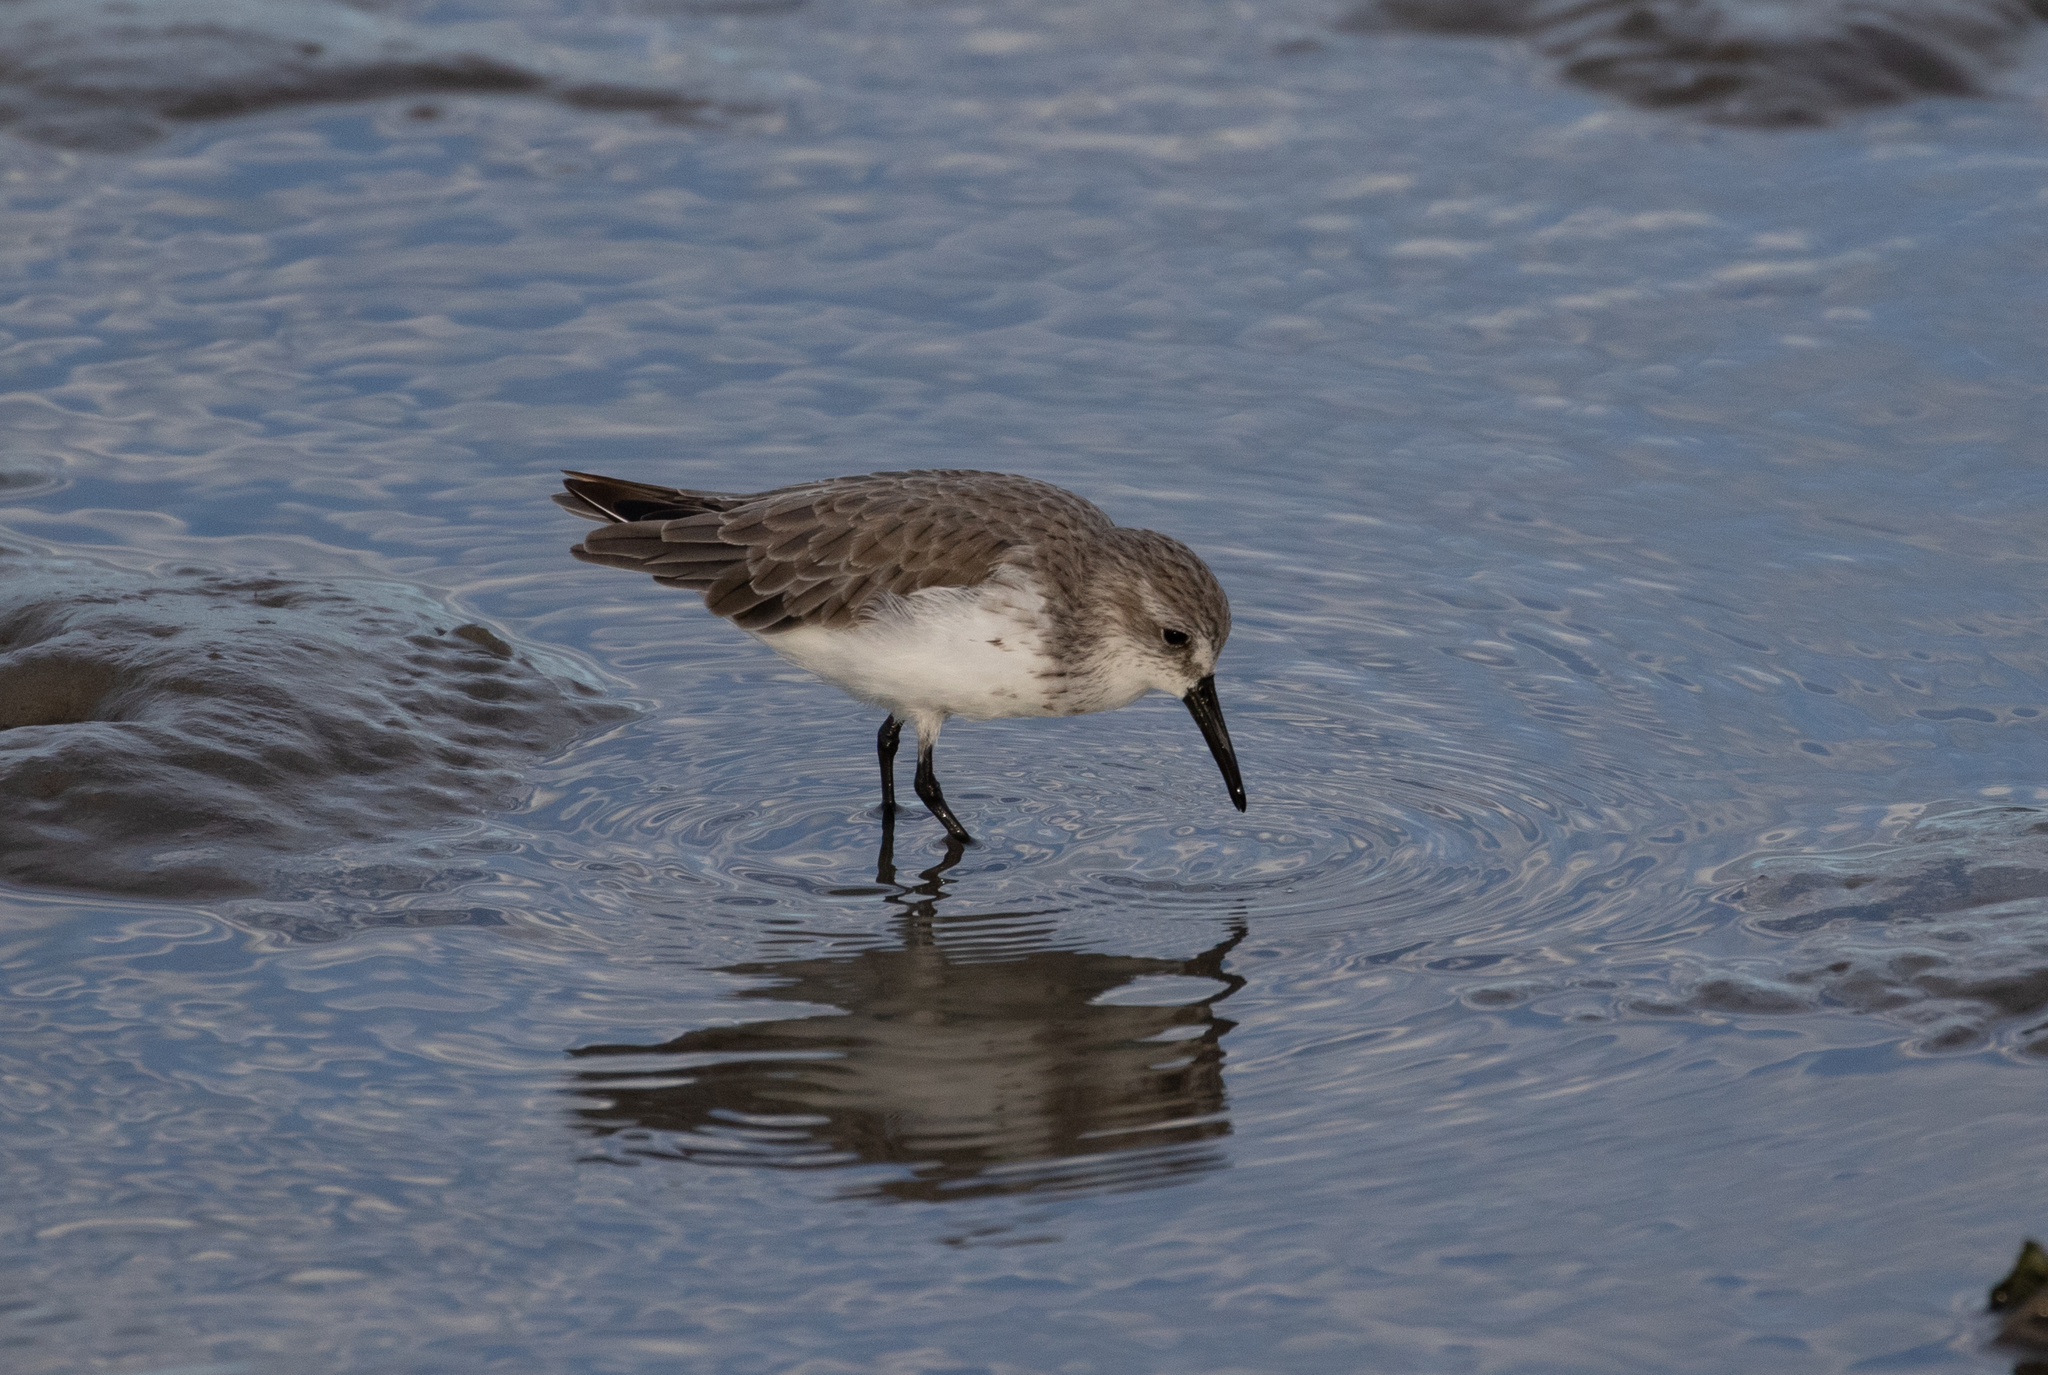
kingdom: Animalia
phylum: Chordata
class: Aves
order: Charadriiformes
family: Scolopacidae
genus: Calidris
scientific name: Calidris mauri
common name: Western sandpiper
